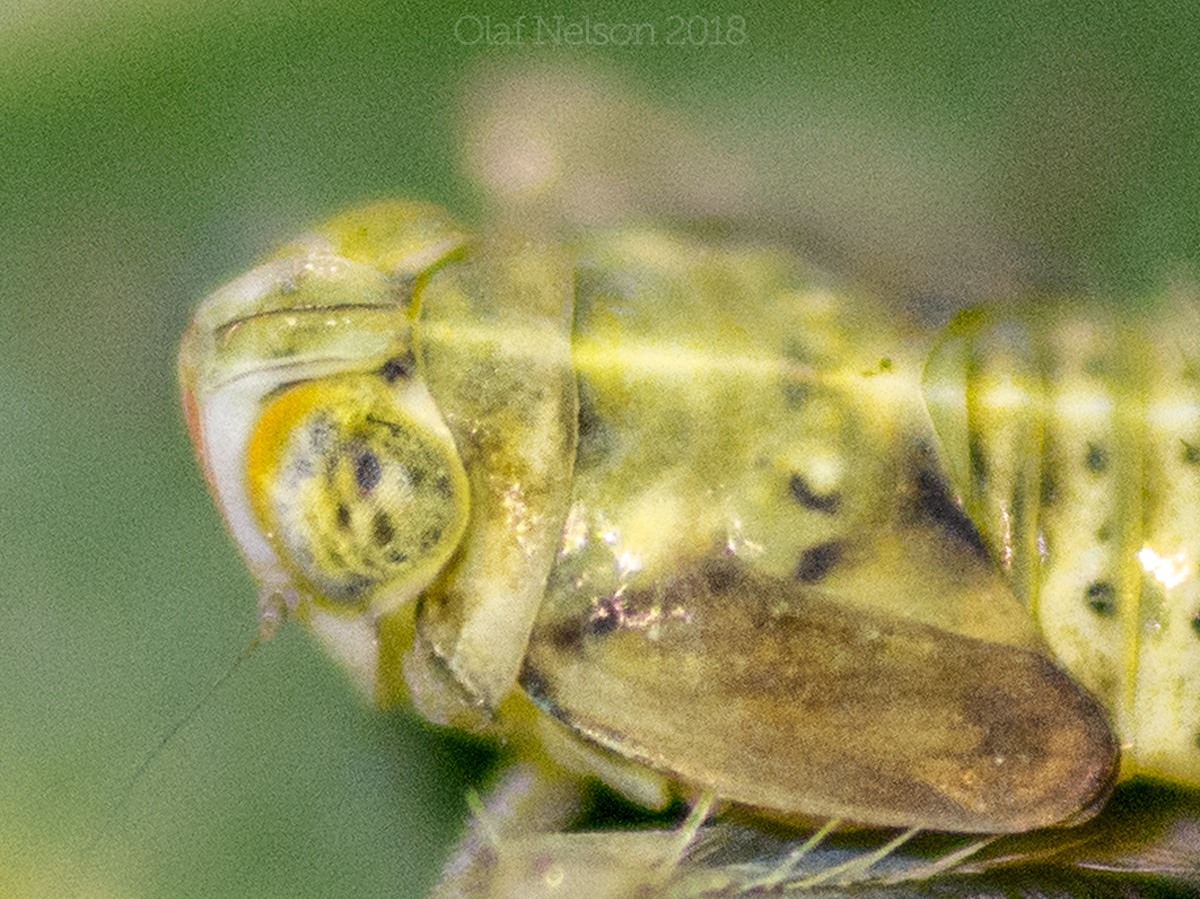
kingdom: Animalia
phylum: Arthropoda
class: Insecta
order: Hemiptera
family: Cicadellidae
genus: Jikradia
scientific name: Jikradia olitoria
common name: Coppery leafhopper
